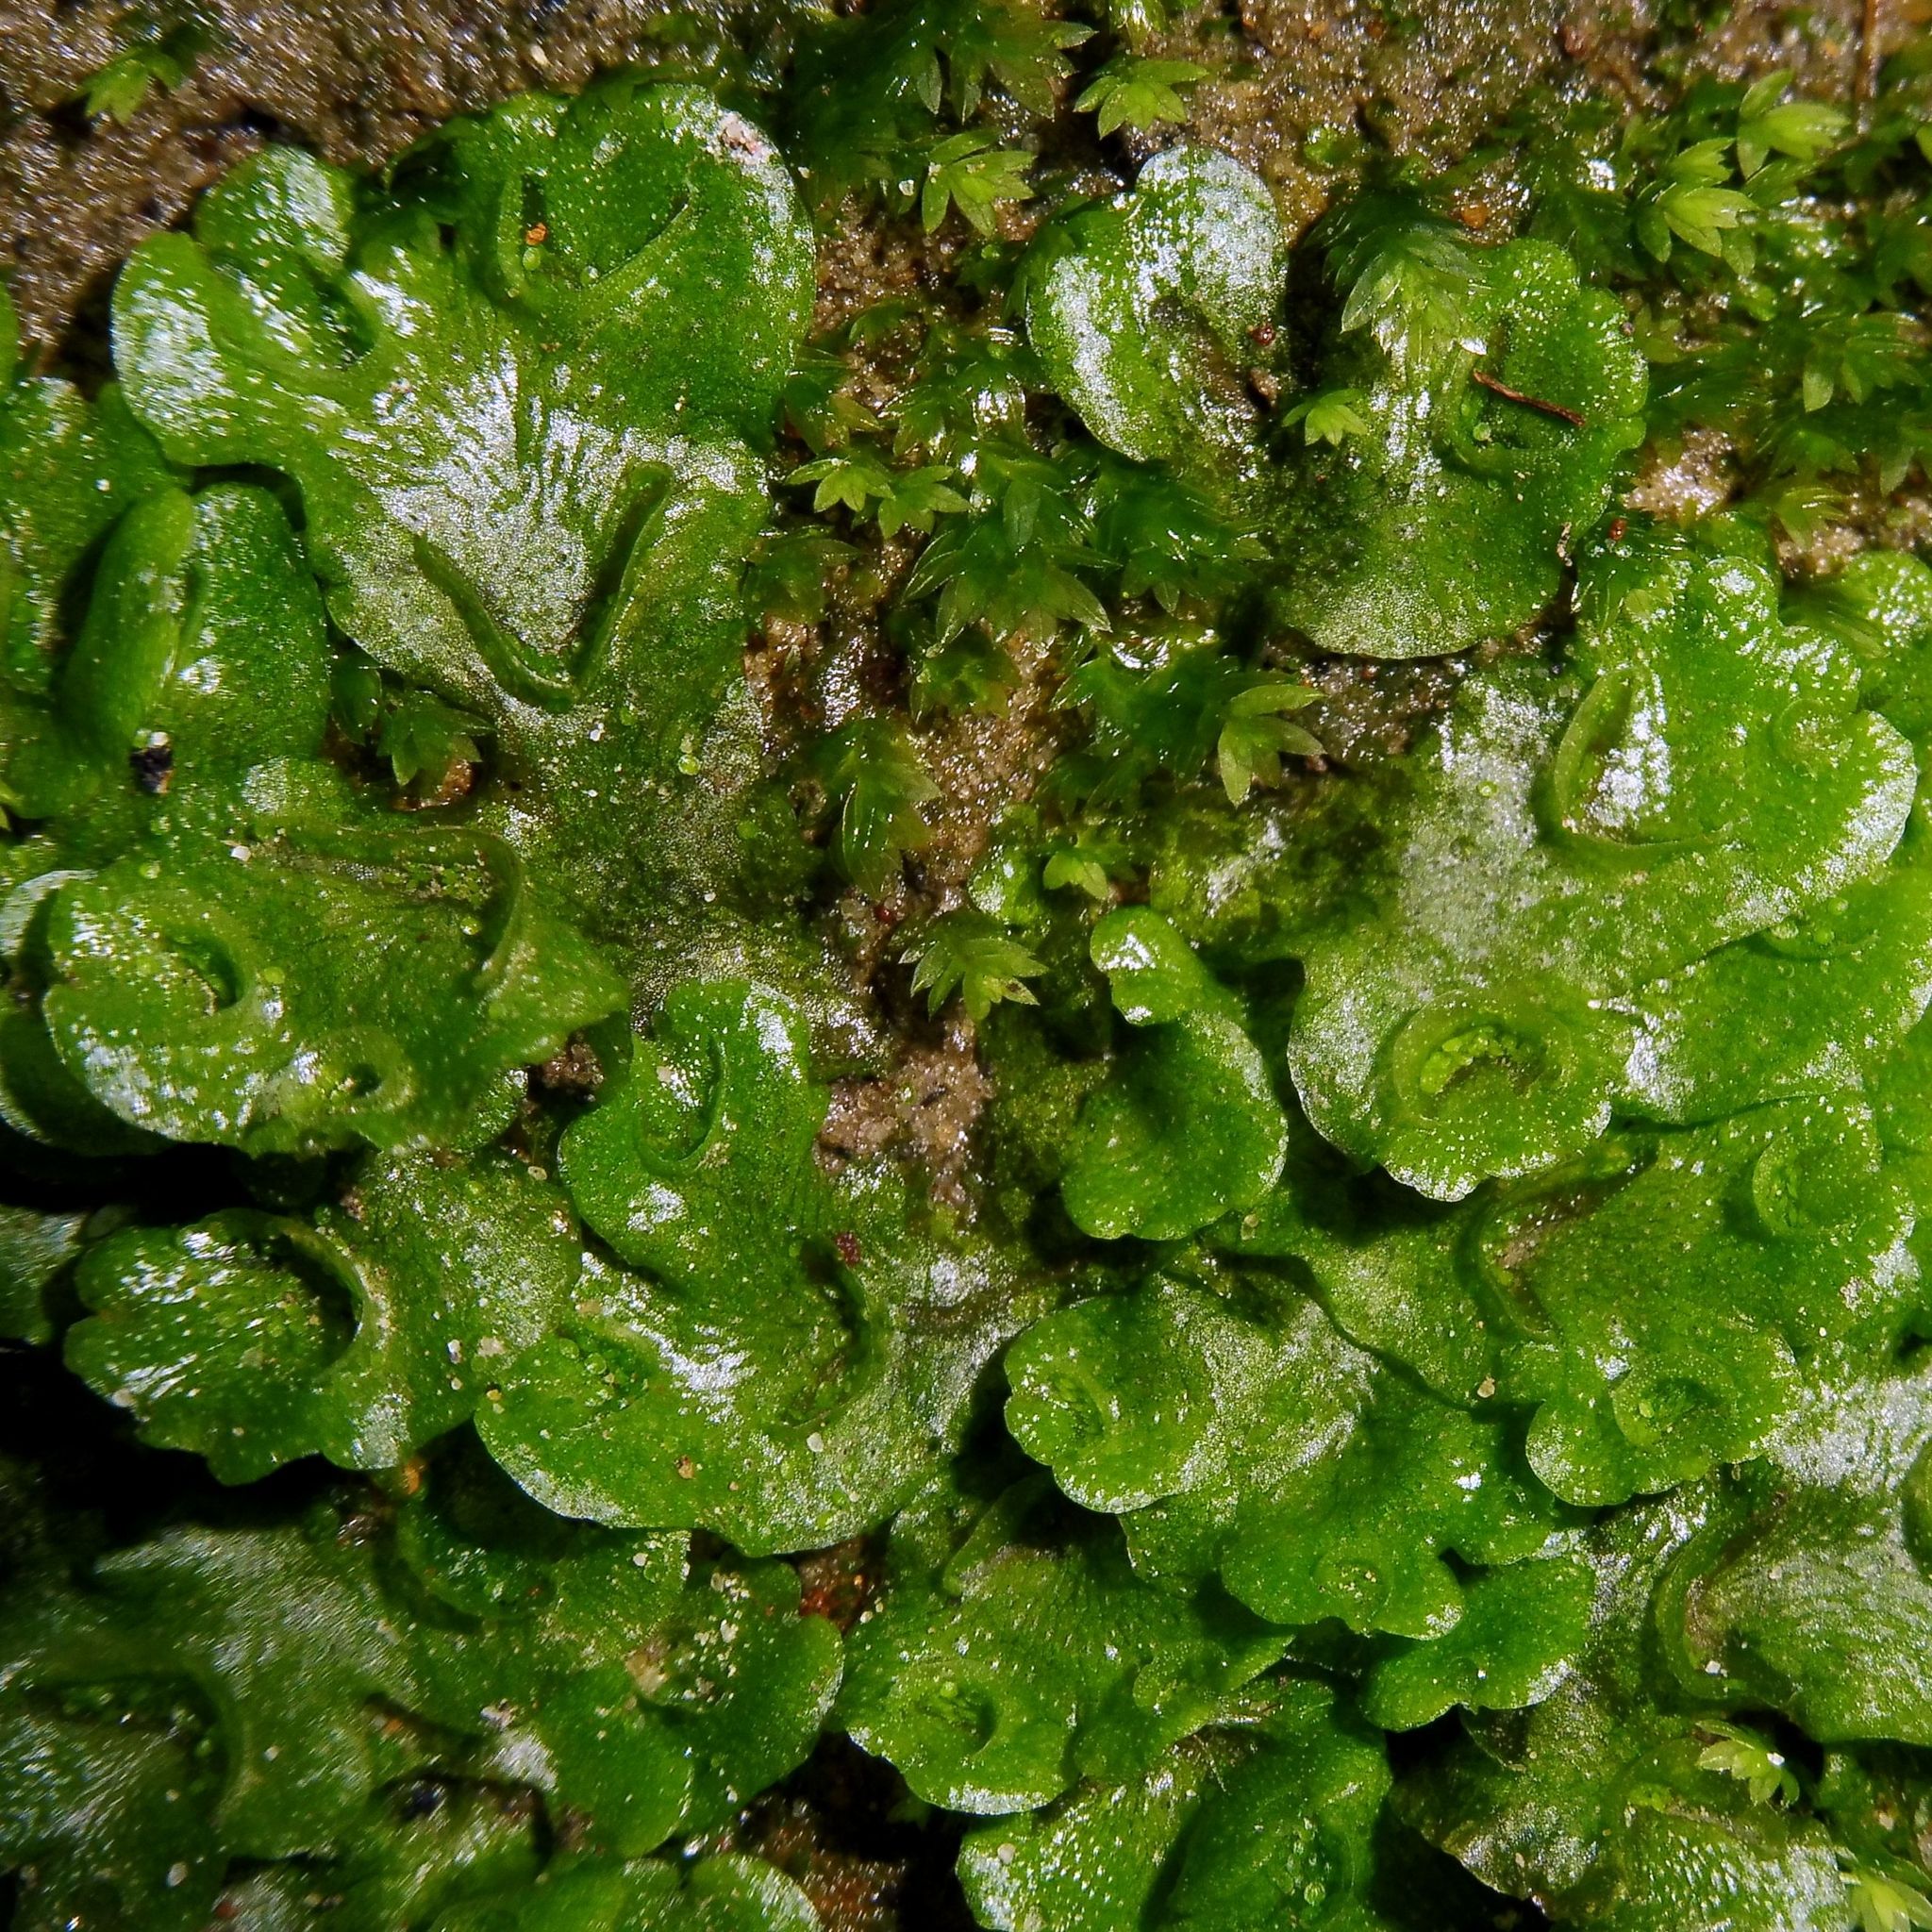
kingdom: Plantae
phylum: Marchantiophyta
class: Marchantiopsida
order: Lunulariales
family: Lunulariaceae
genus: Lunularia
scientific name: Lunularia cruciata
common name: Crescent-cup liverwort
